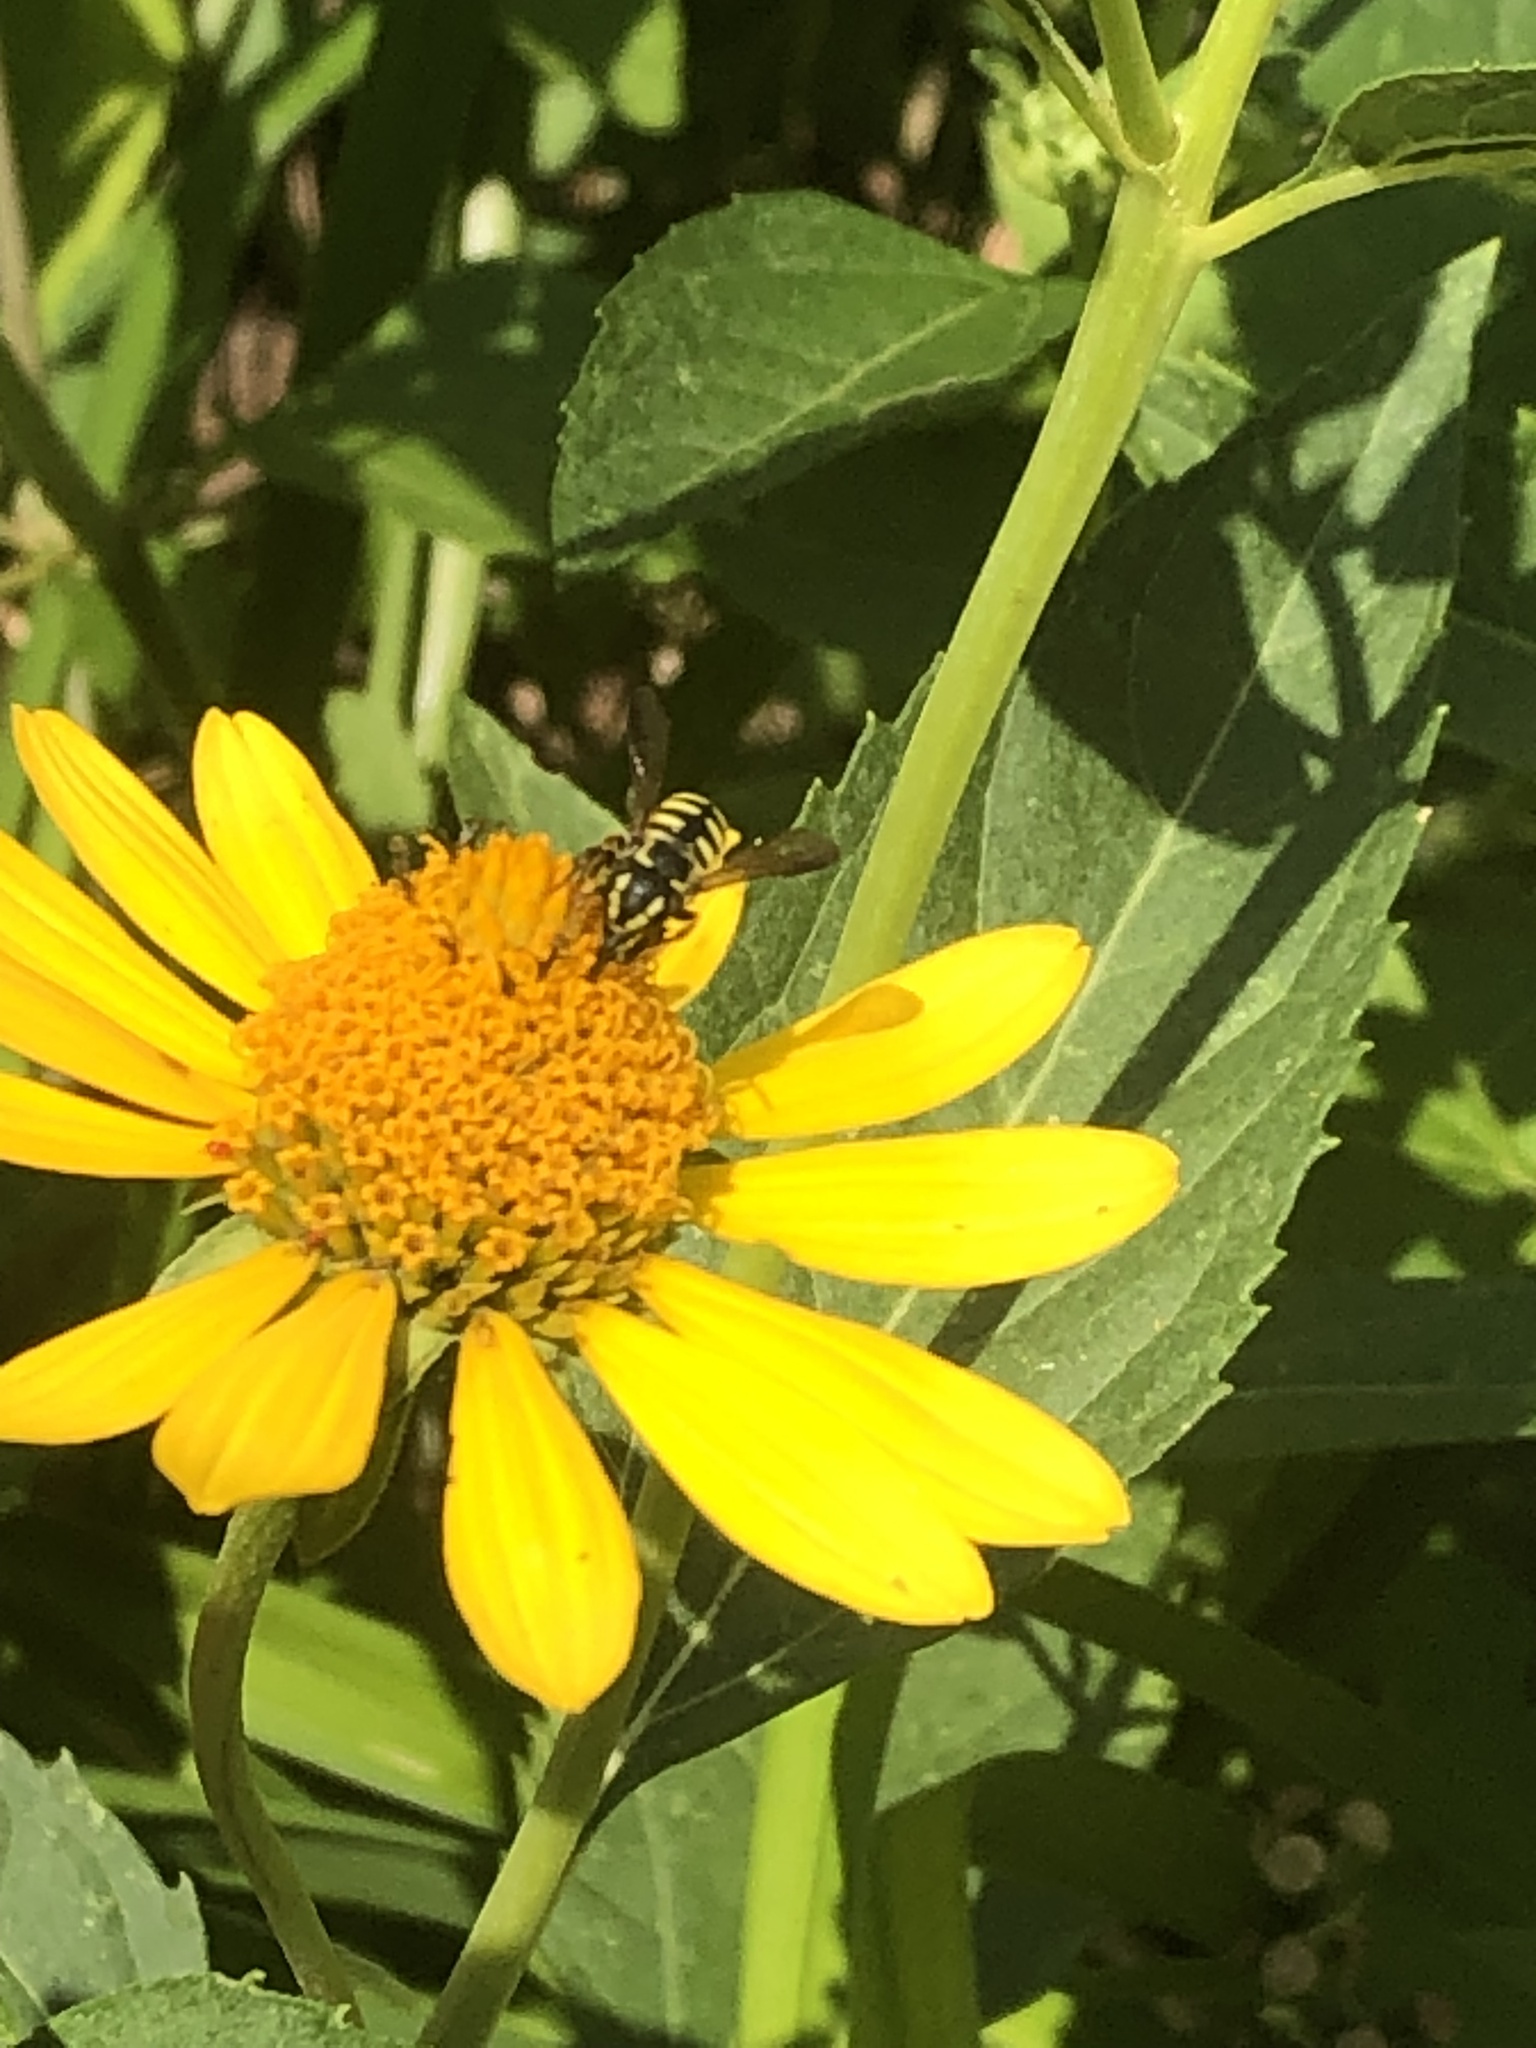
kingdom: Animalia
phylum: Arthropoda
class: Insecta
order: Hymenoptera
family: Megachilidae
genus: Paranthidium
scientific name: Paranthidium jugatorium
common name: Sunflower burrowing-resin bee
